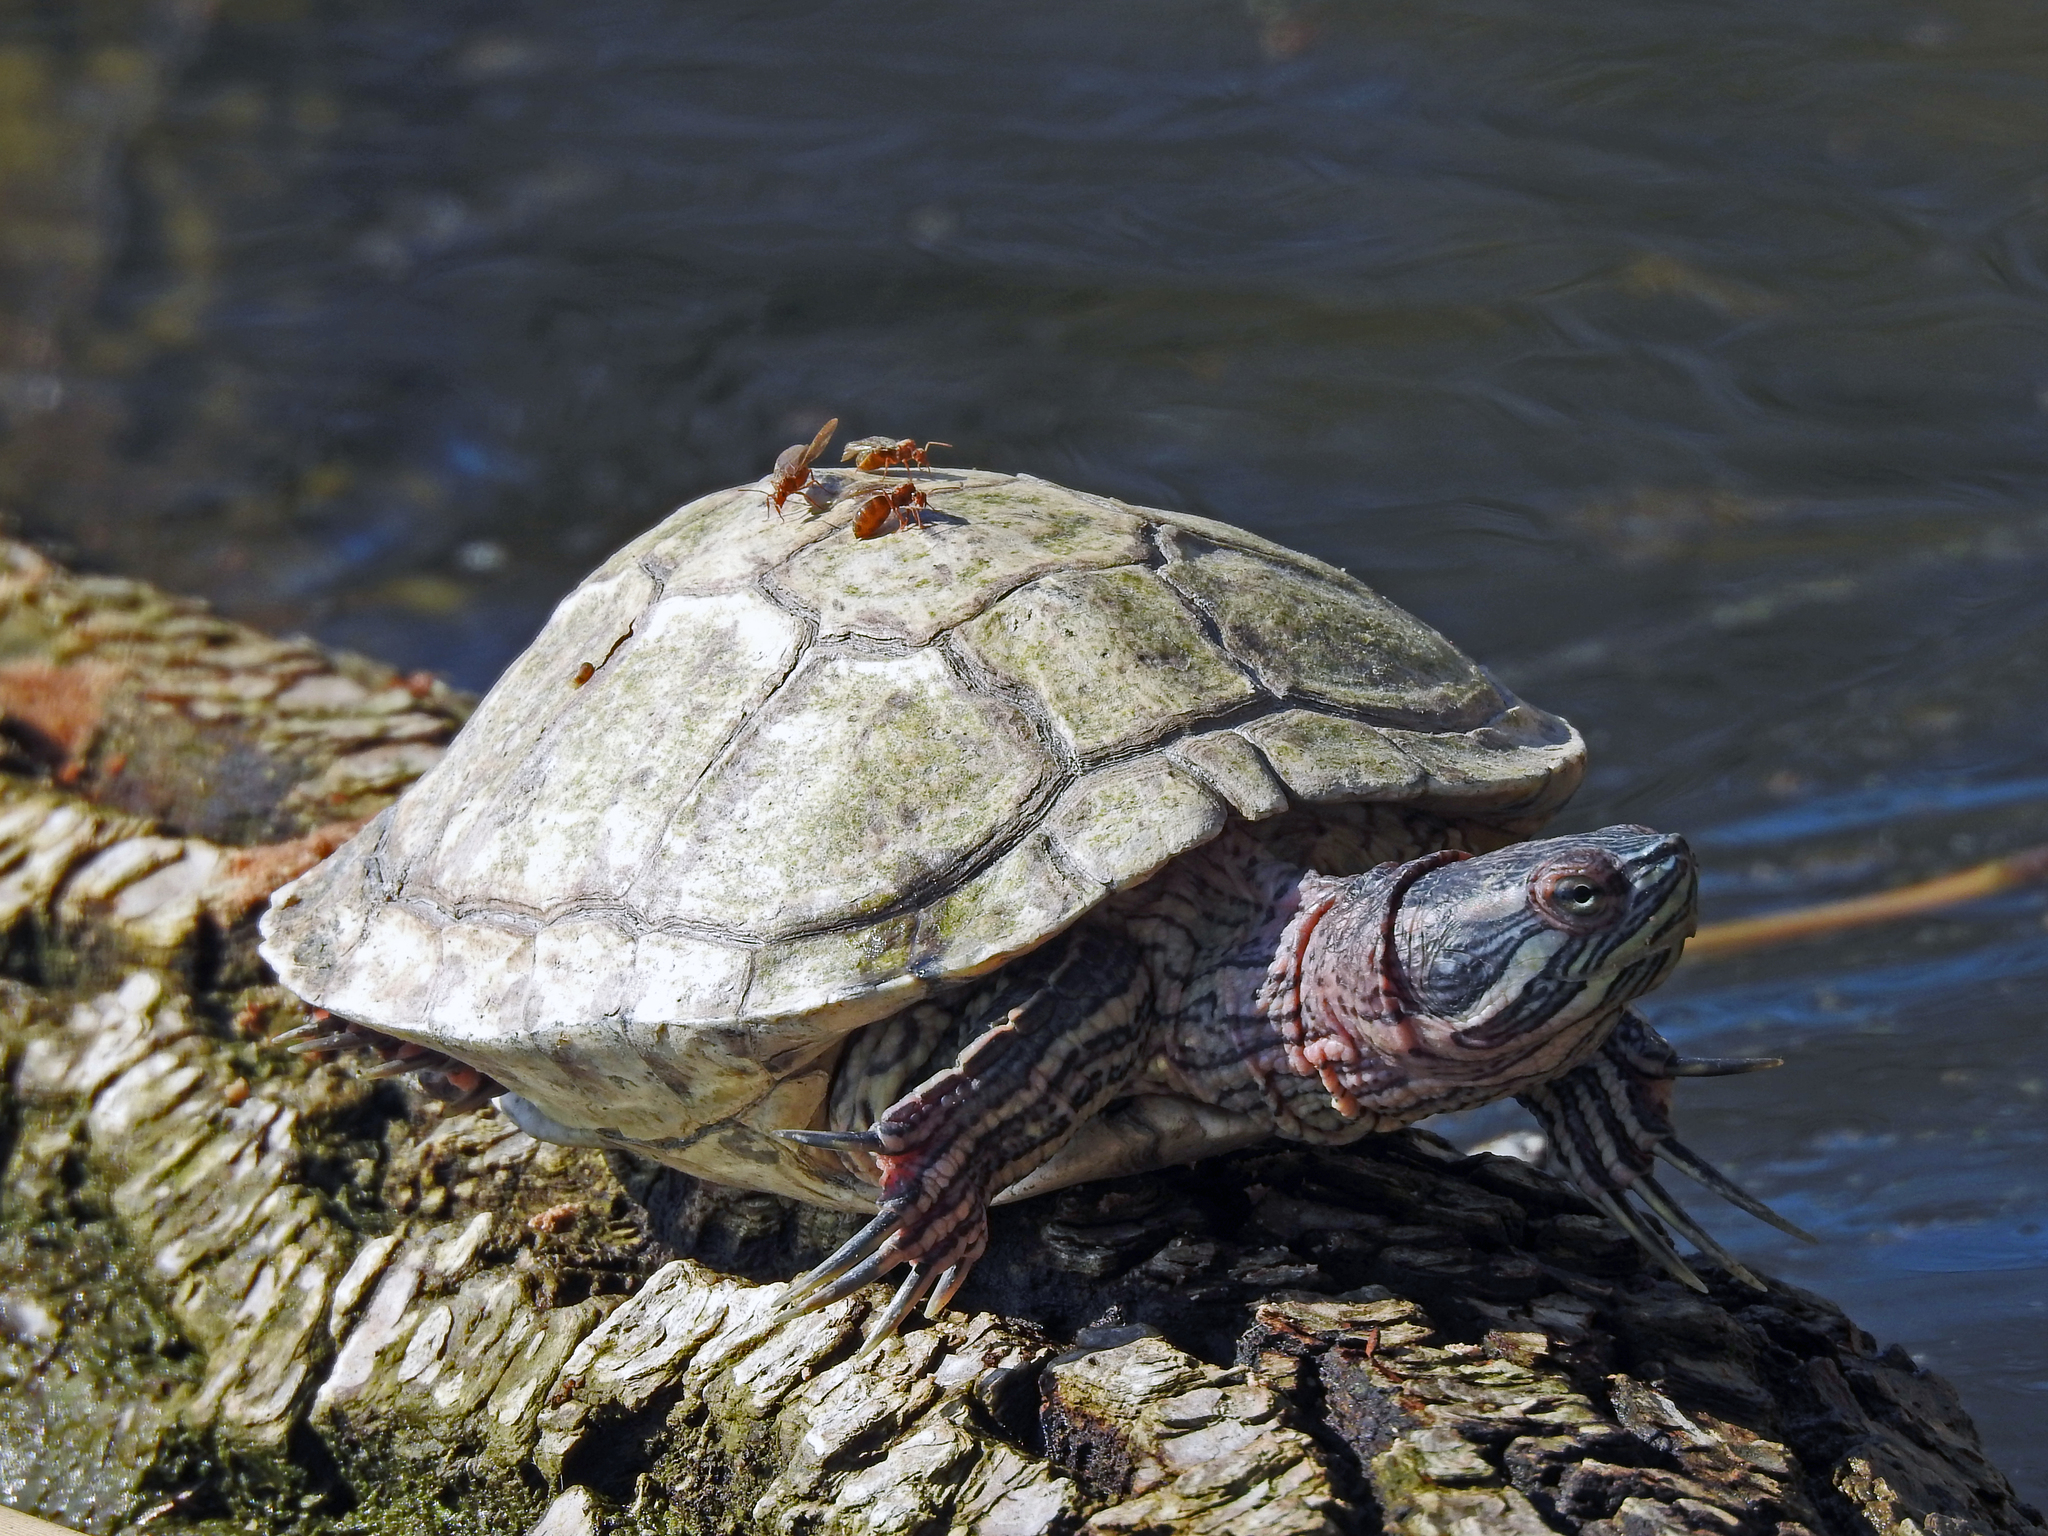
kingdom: Animalia
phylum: Chordata
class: Testudines
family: Emydidae
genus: Trachemys
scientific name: Trachemys scripta
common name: Slider
